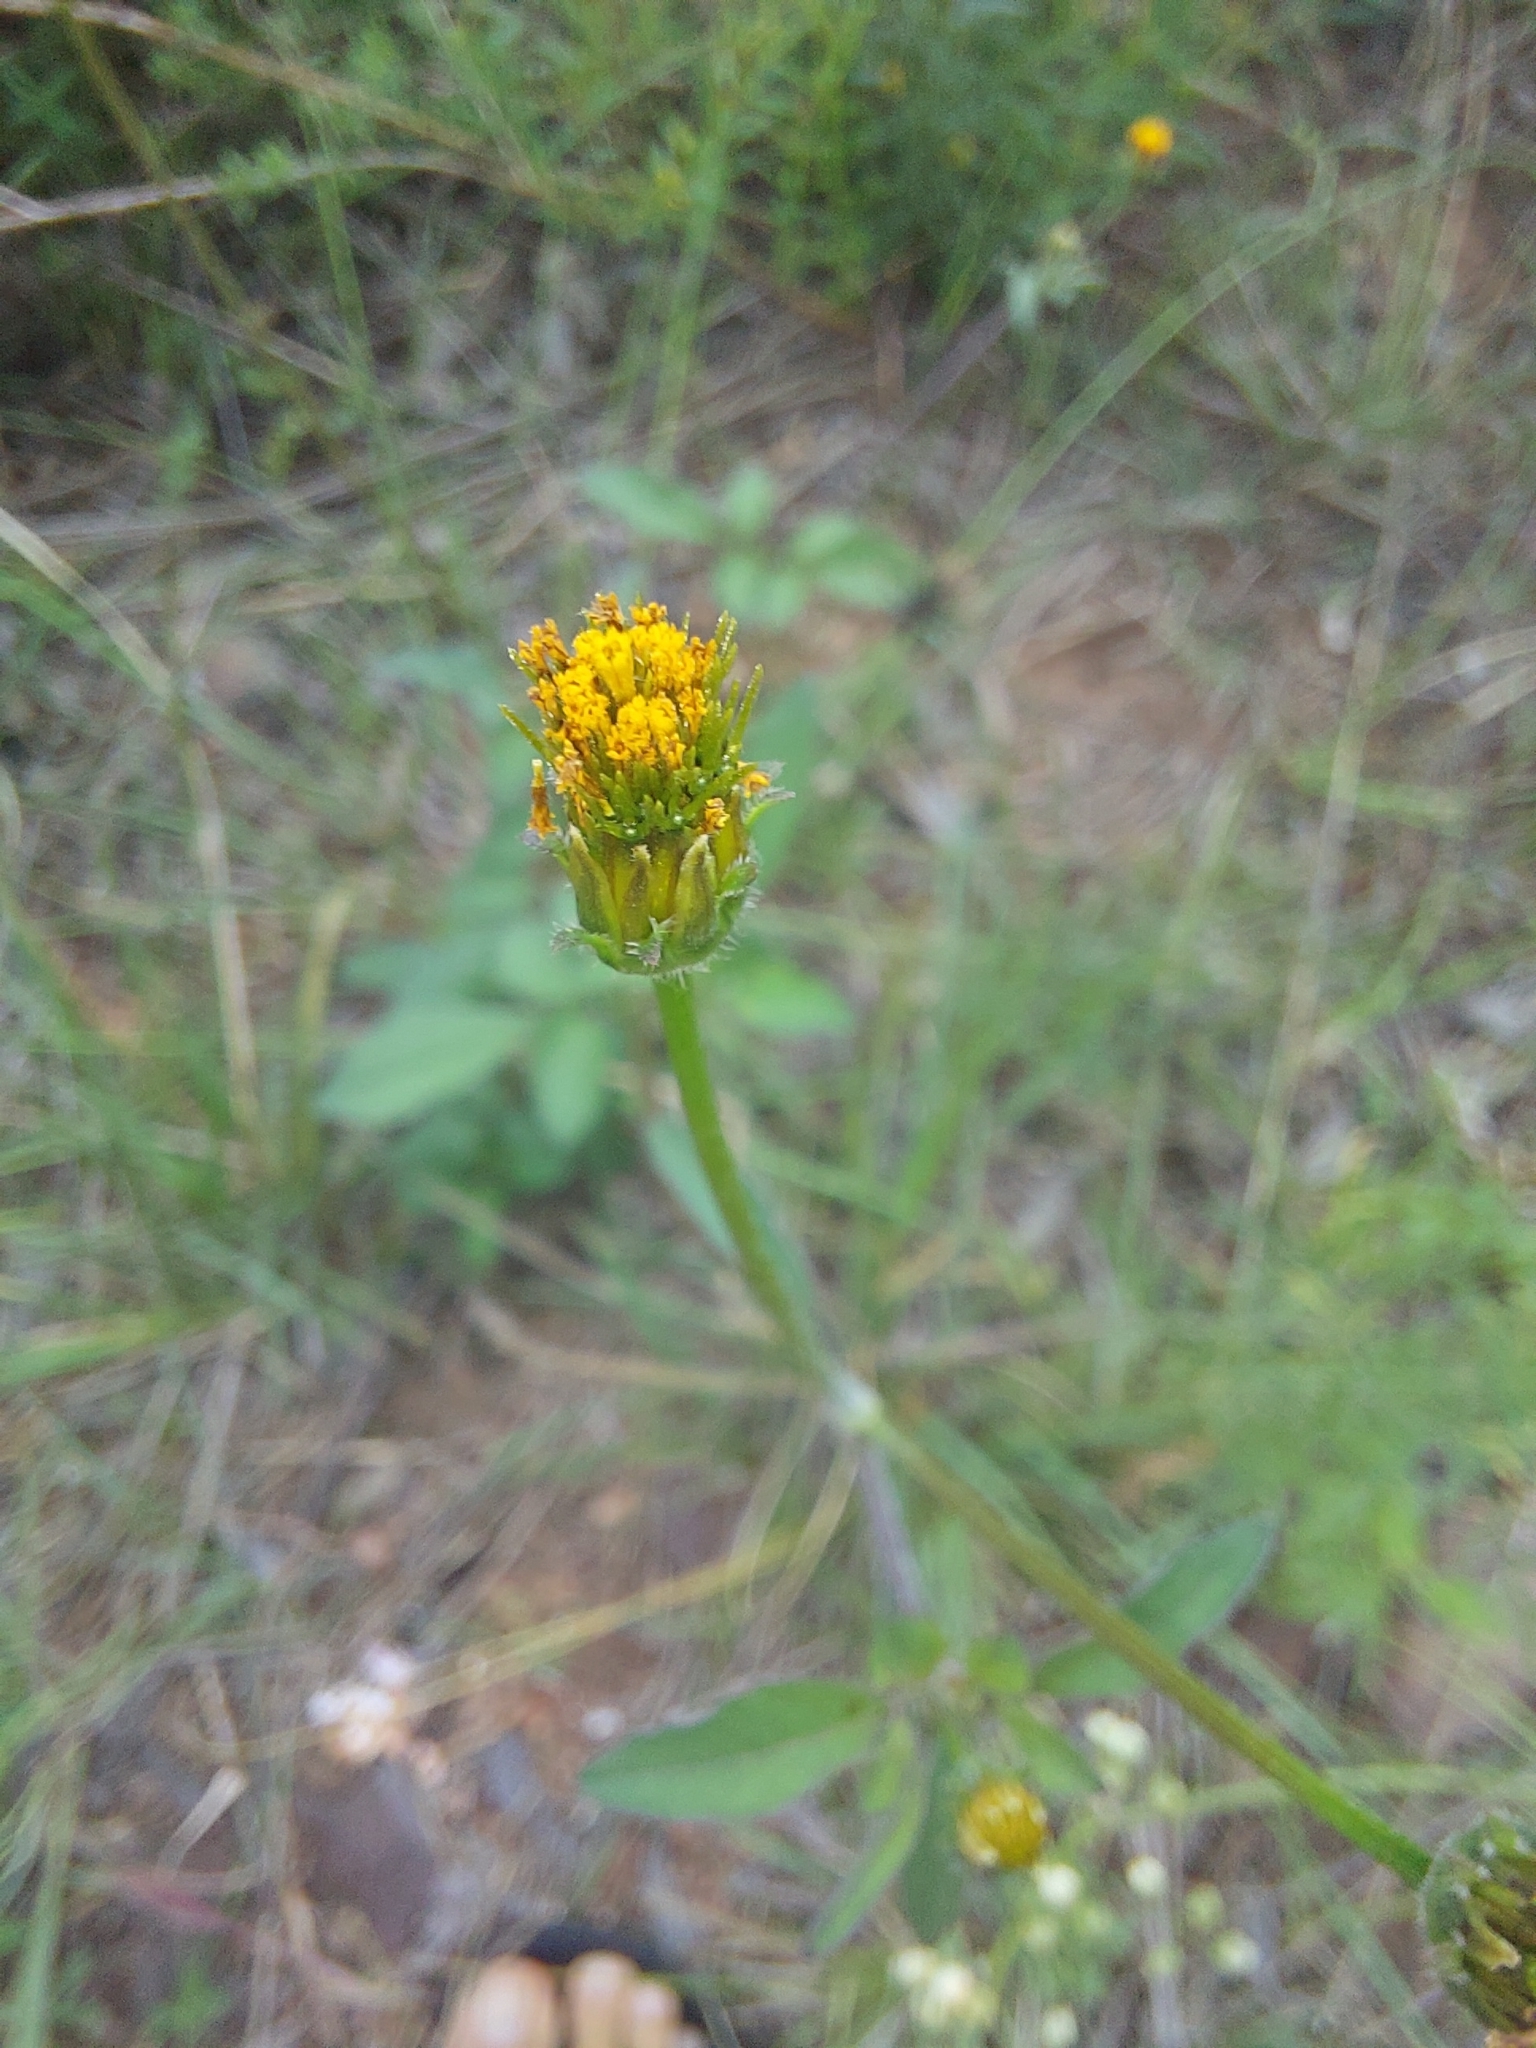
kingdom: Plantae
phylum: Tracheophyta
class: Magnoliopsida
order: Asterales
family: Asteraceae
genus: Bidens
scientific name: Bidens pilosa
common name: Black-jack
